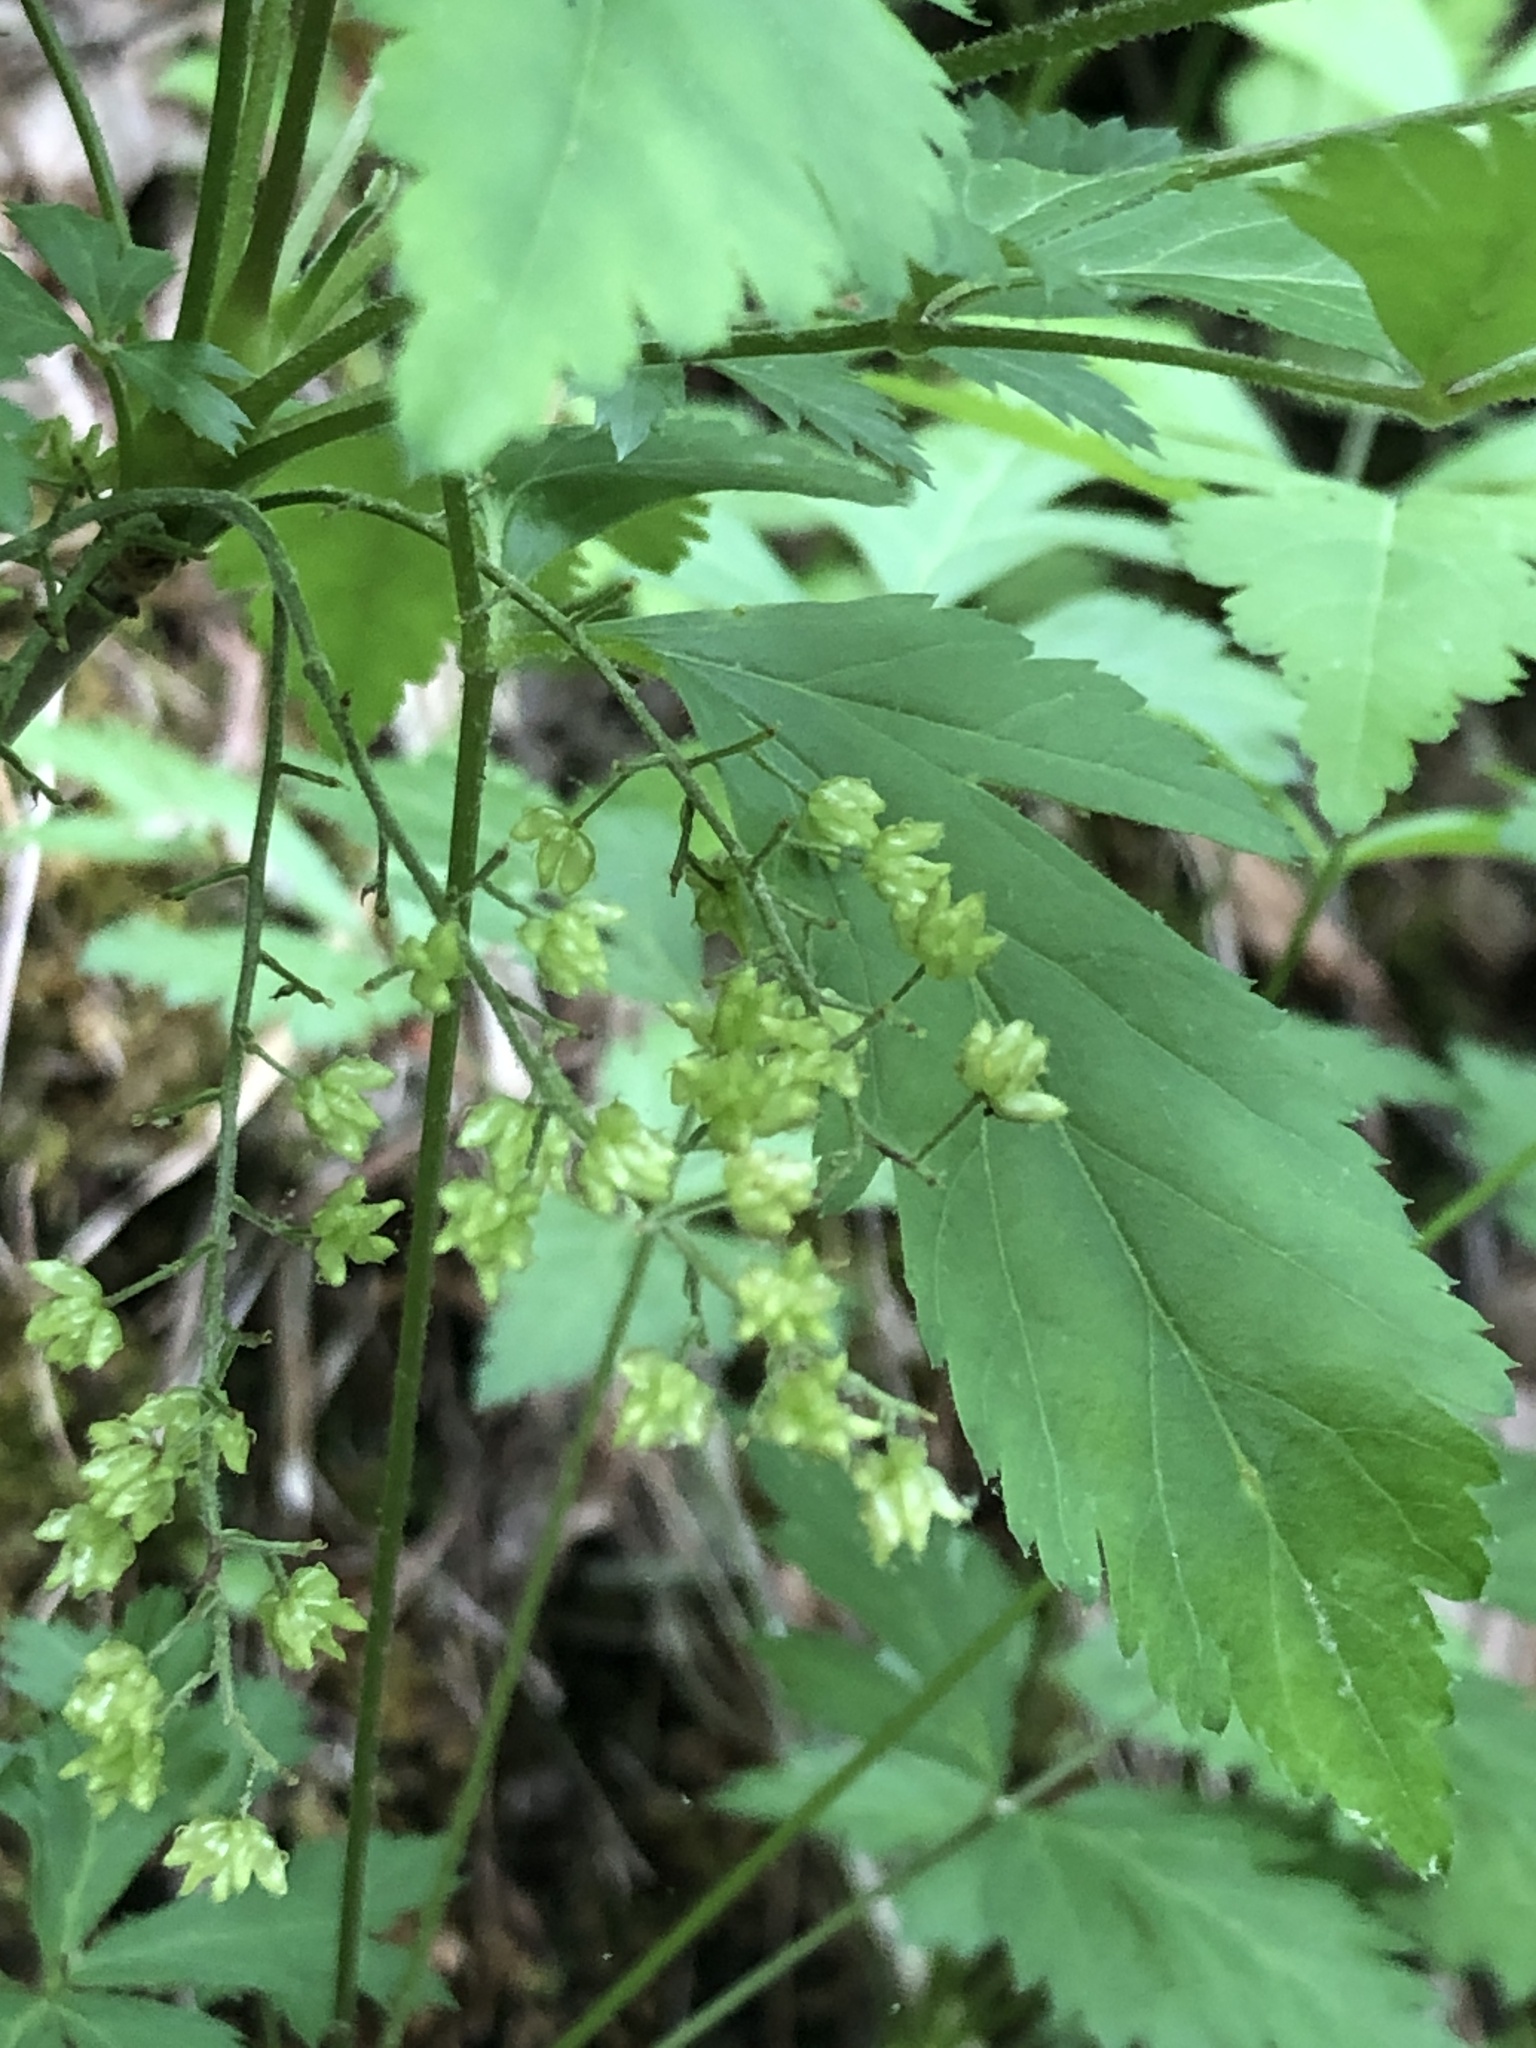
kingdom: Plantae
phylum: Tracheophyta
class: Magnoliopsida
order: Ranunculales
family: Ranunculaceae
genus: Xanthorhiza
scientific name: Xanthorhiza simplicissima
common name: Yellowroot
